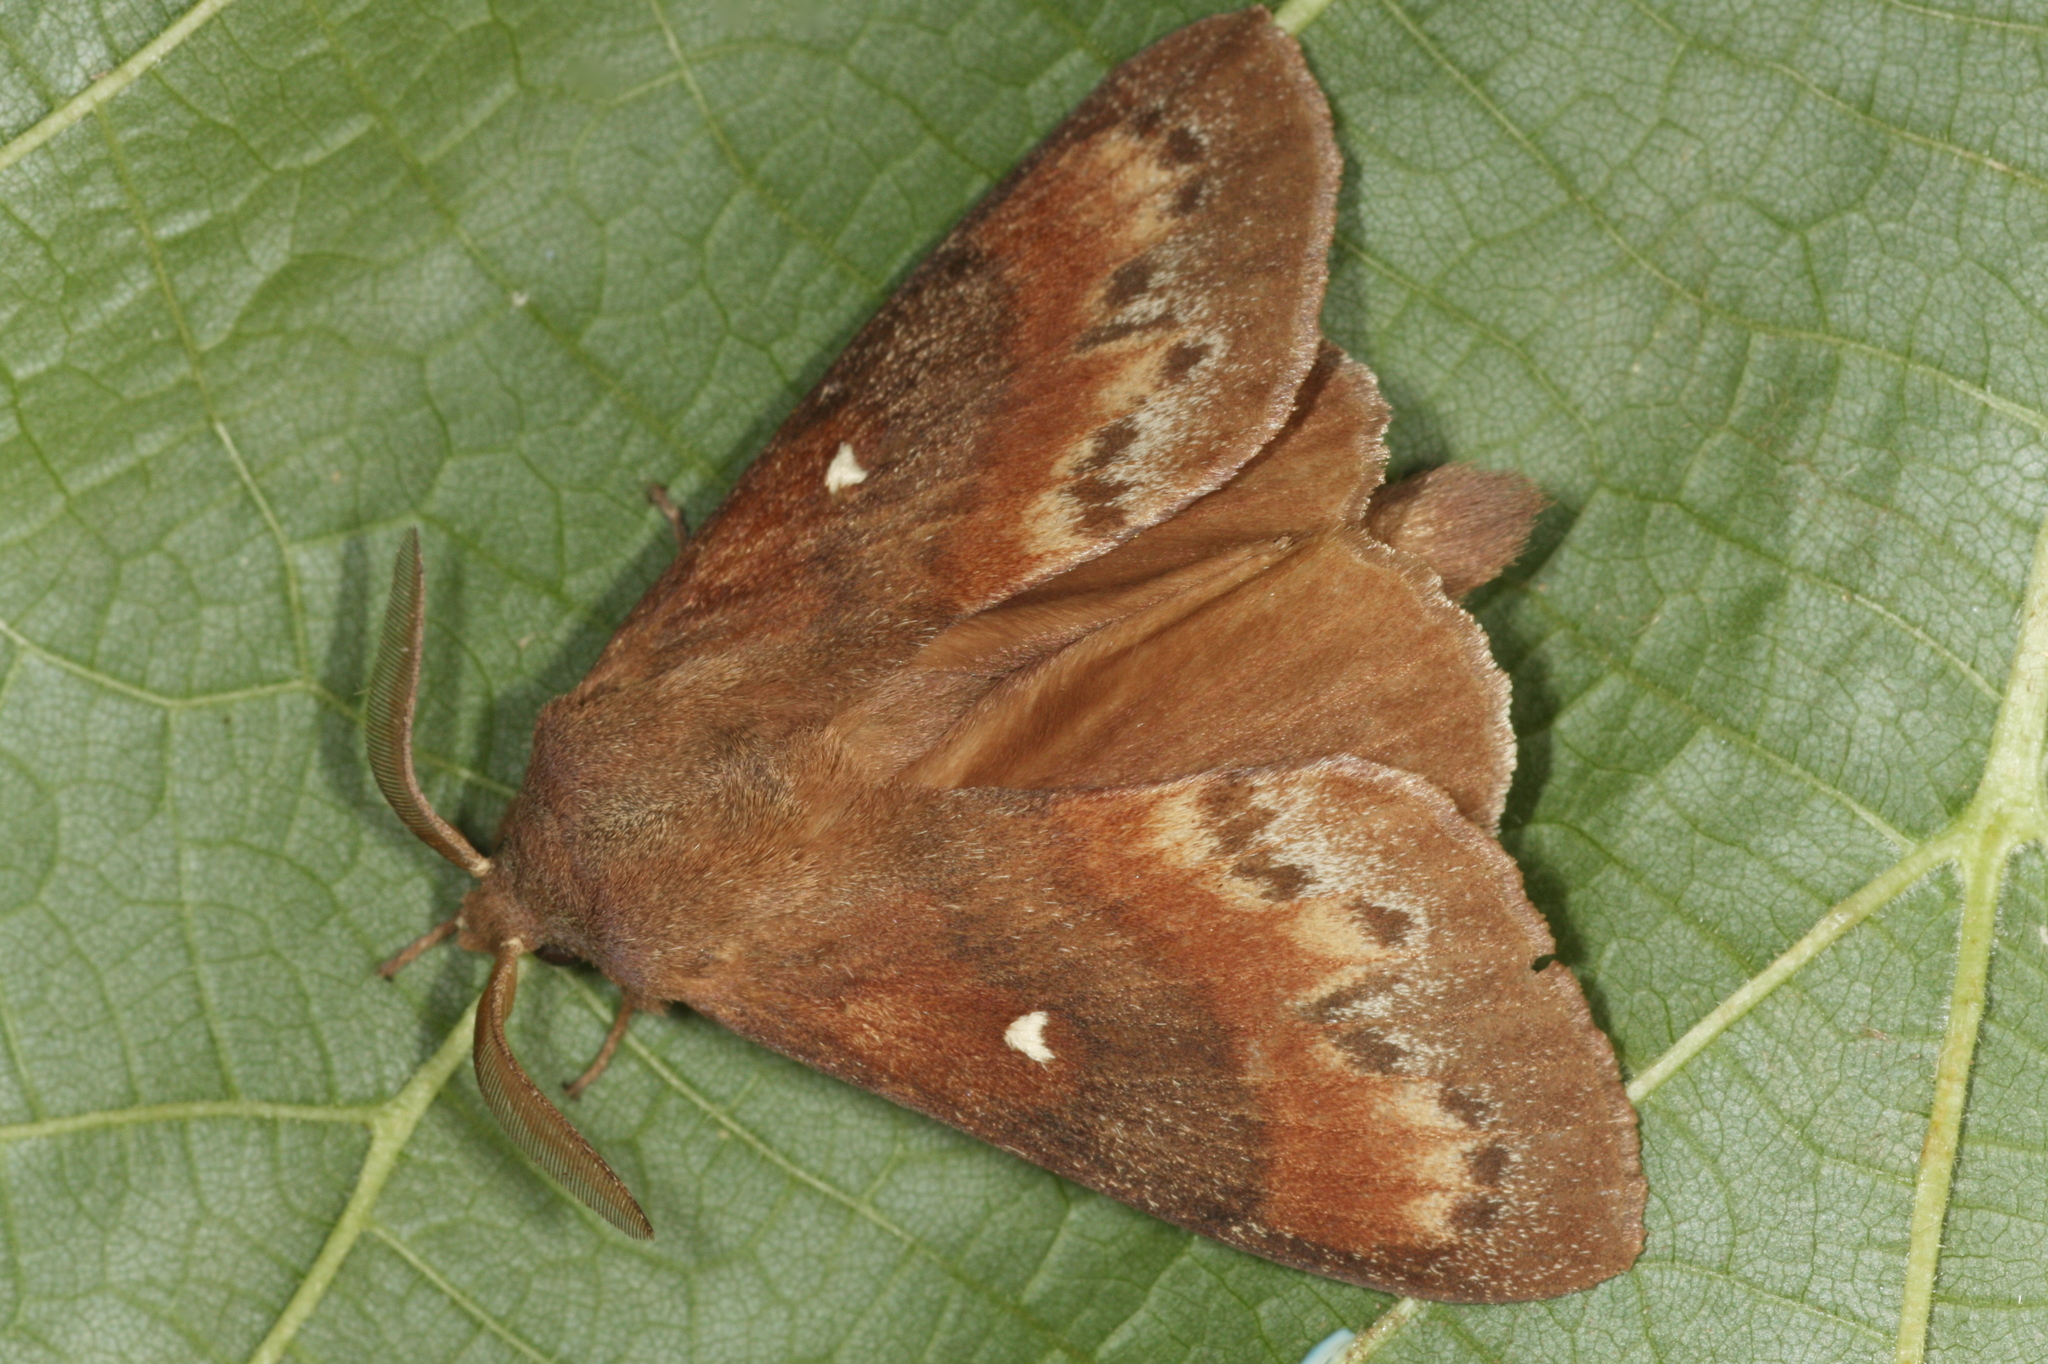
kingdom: Animalia
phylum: Arthropoda
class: Insecta
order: Lepidoptera
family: Lasiocampidae
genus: Dendrolimus
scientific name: Dendrolimus pini
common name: Pine-tree lappet
